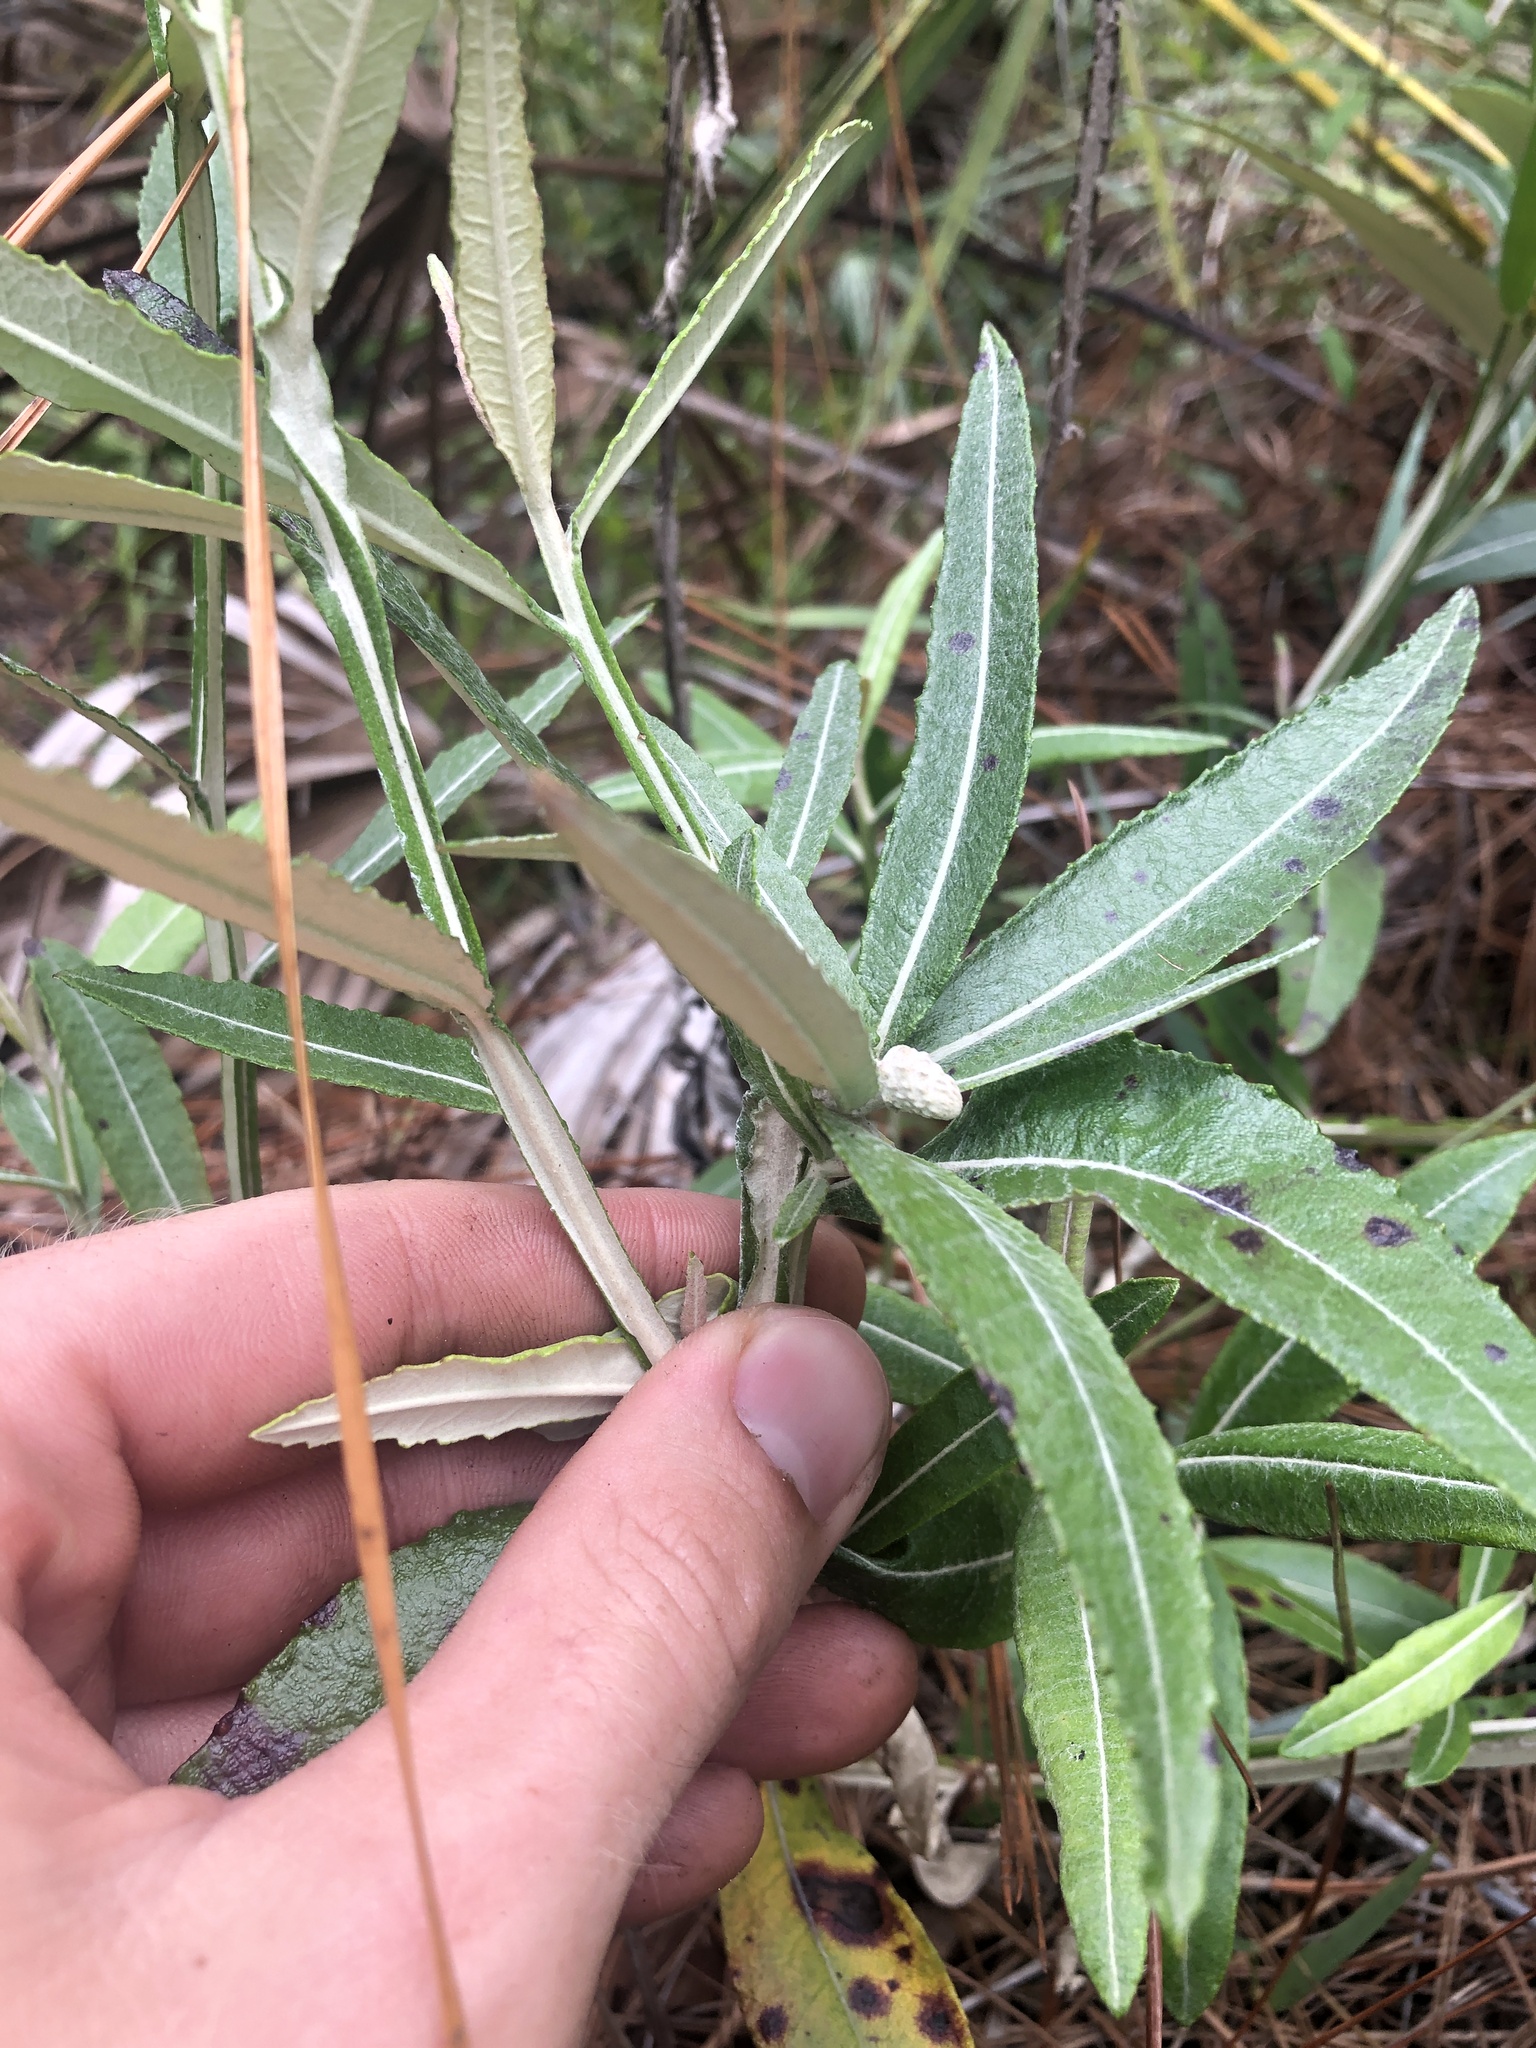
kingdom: Plantae
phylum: Tracheophyta
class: Magnoliopsida
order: Asterales
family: Asteraceae
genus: Pterocaulon
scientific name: Pterocaulon pycnostachyum
